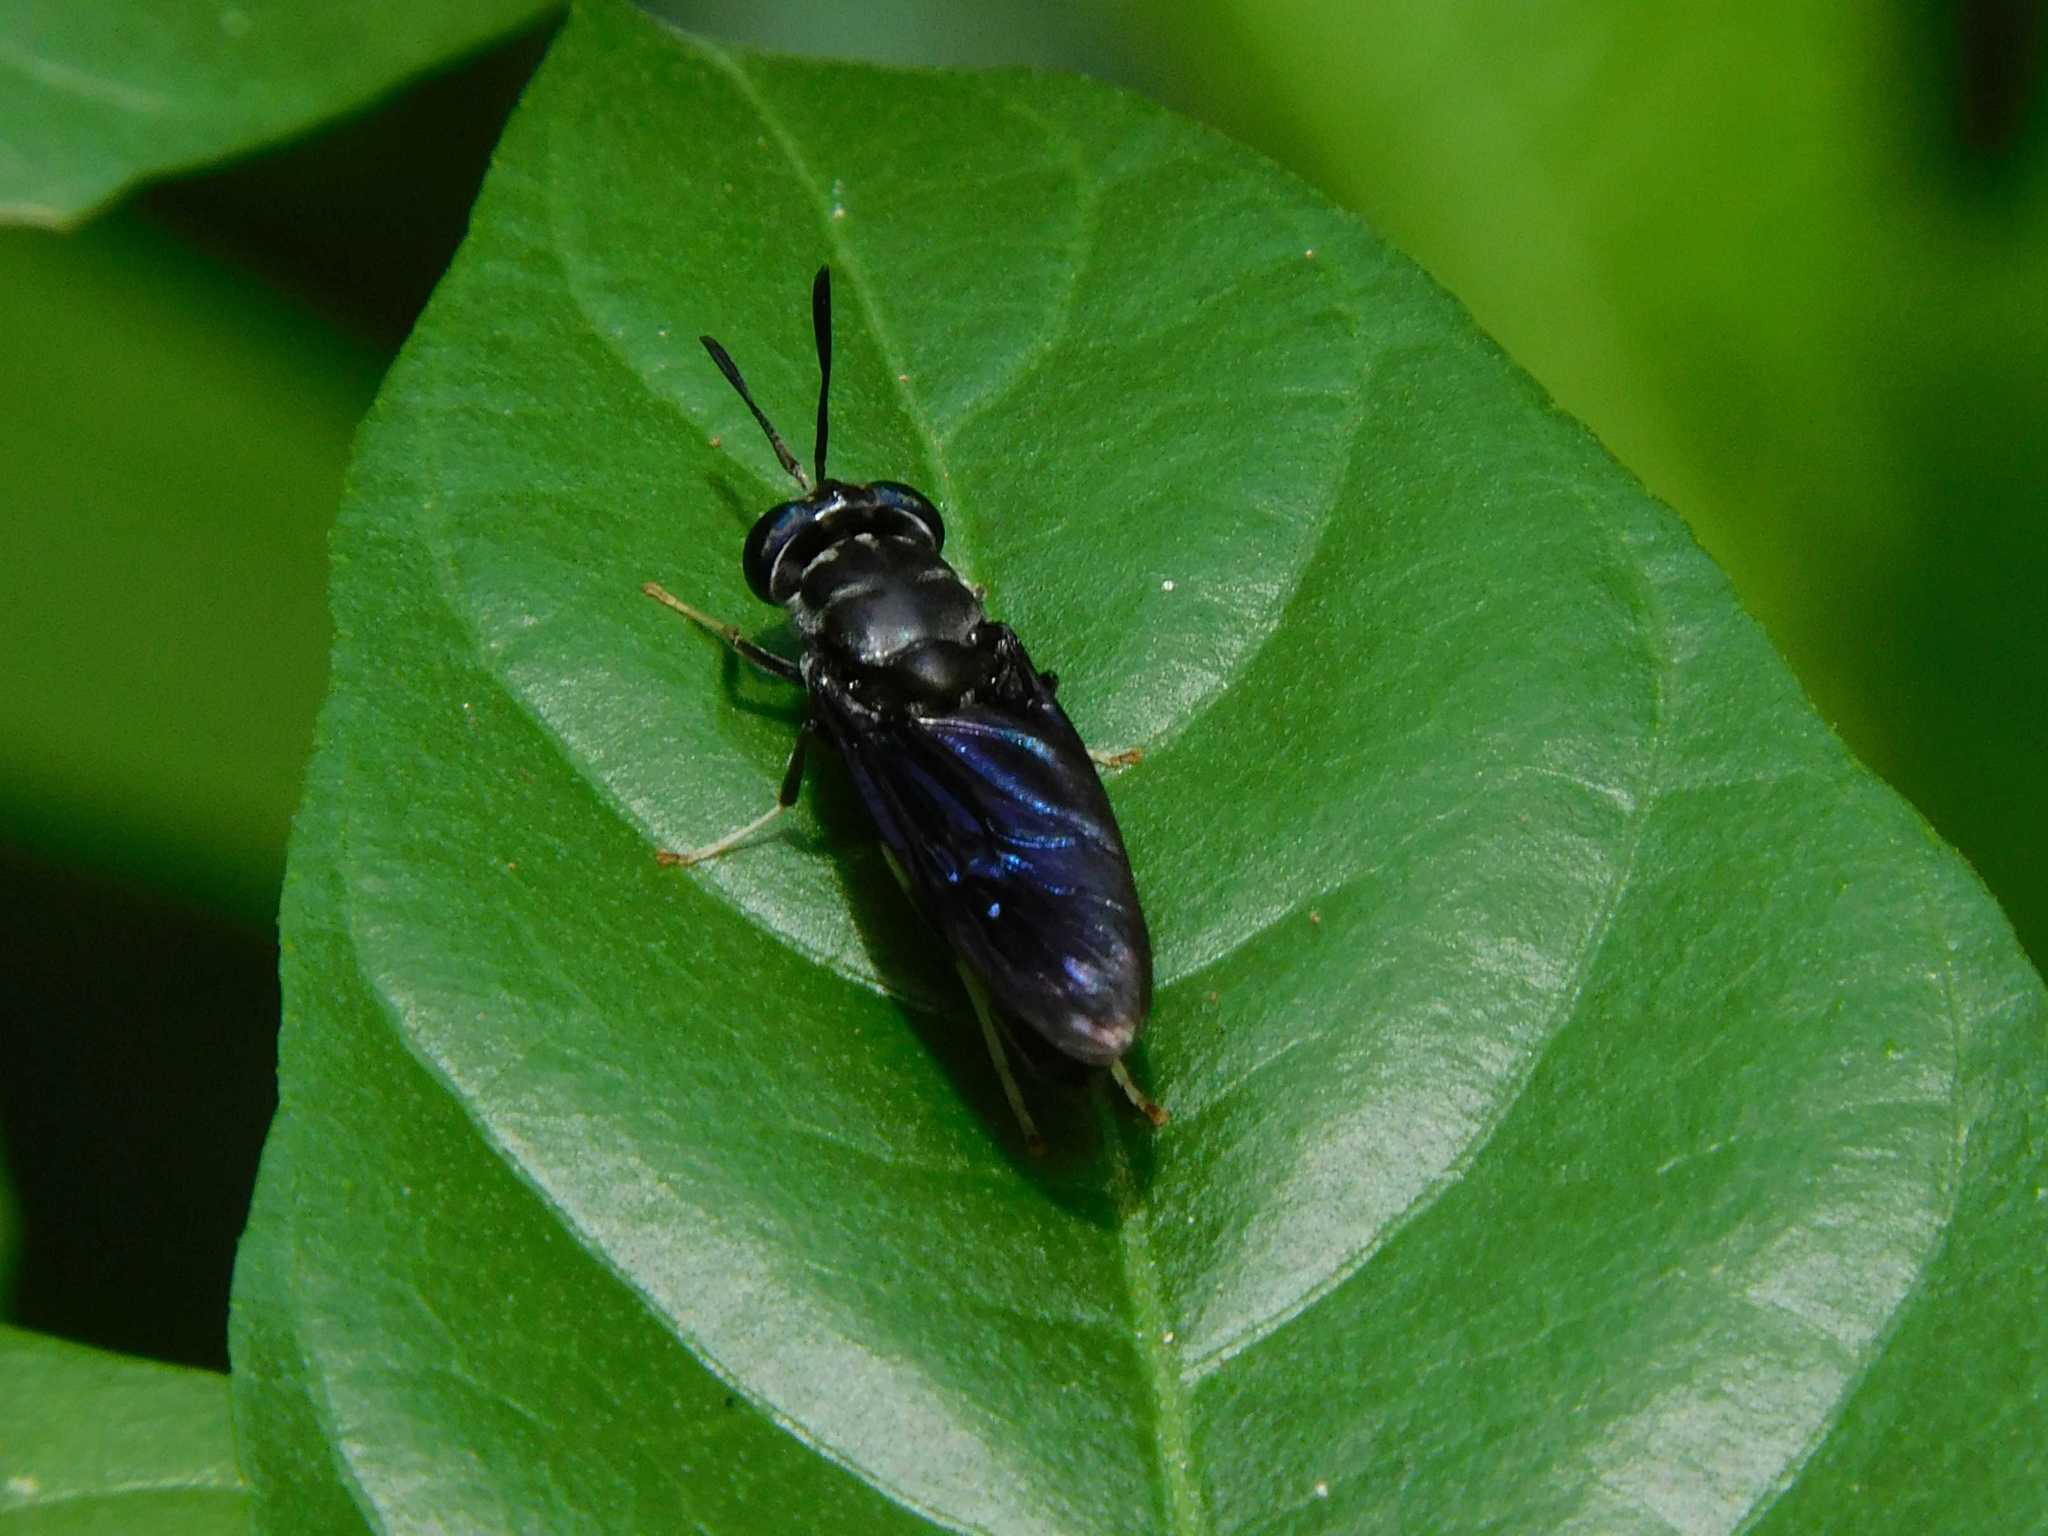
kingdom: Animalia
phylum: Arthropoda
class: Insecta
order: Diptera
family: Stratiomyidae
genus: Hermetia
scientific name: Hermetia illucens
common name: Black soldier fly
